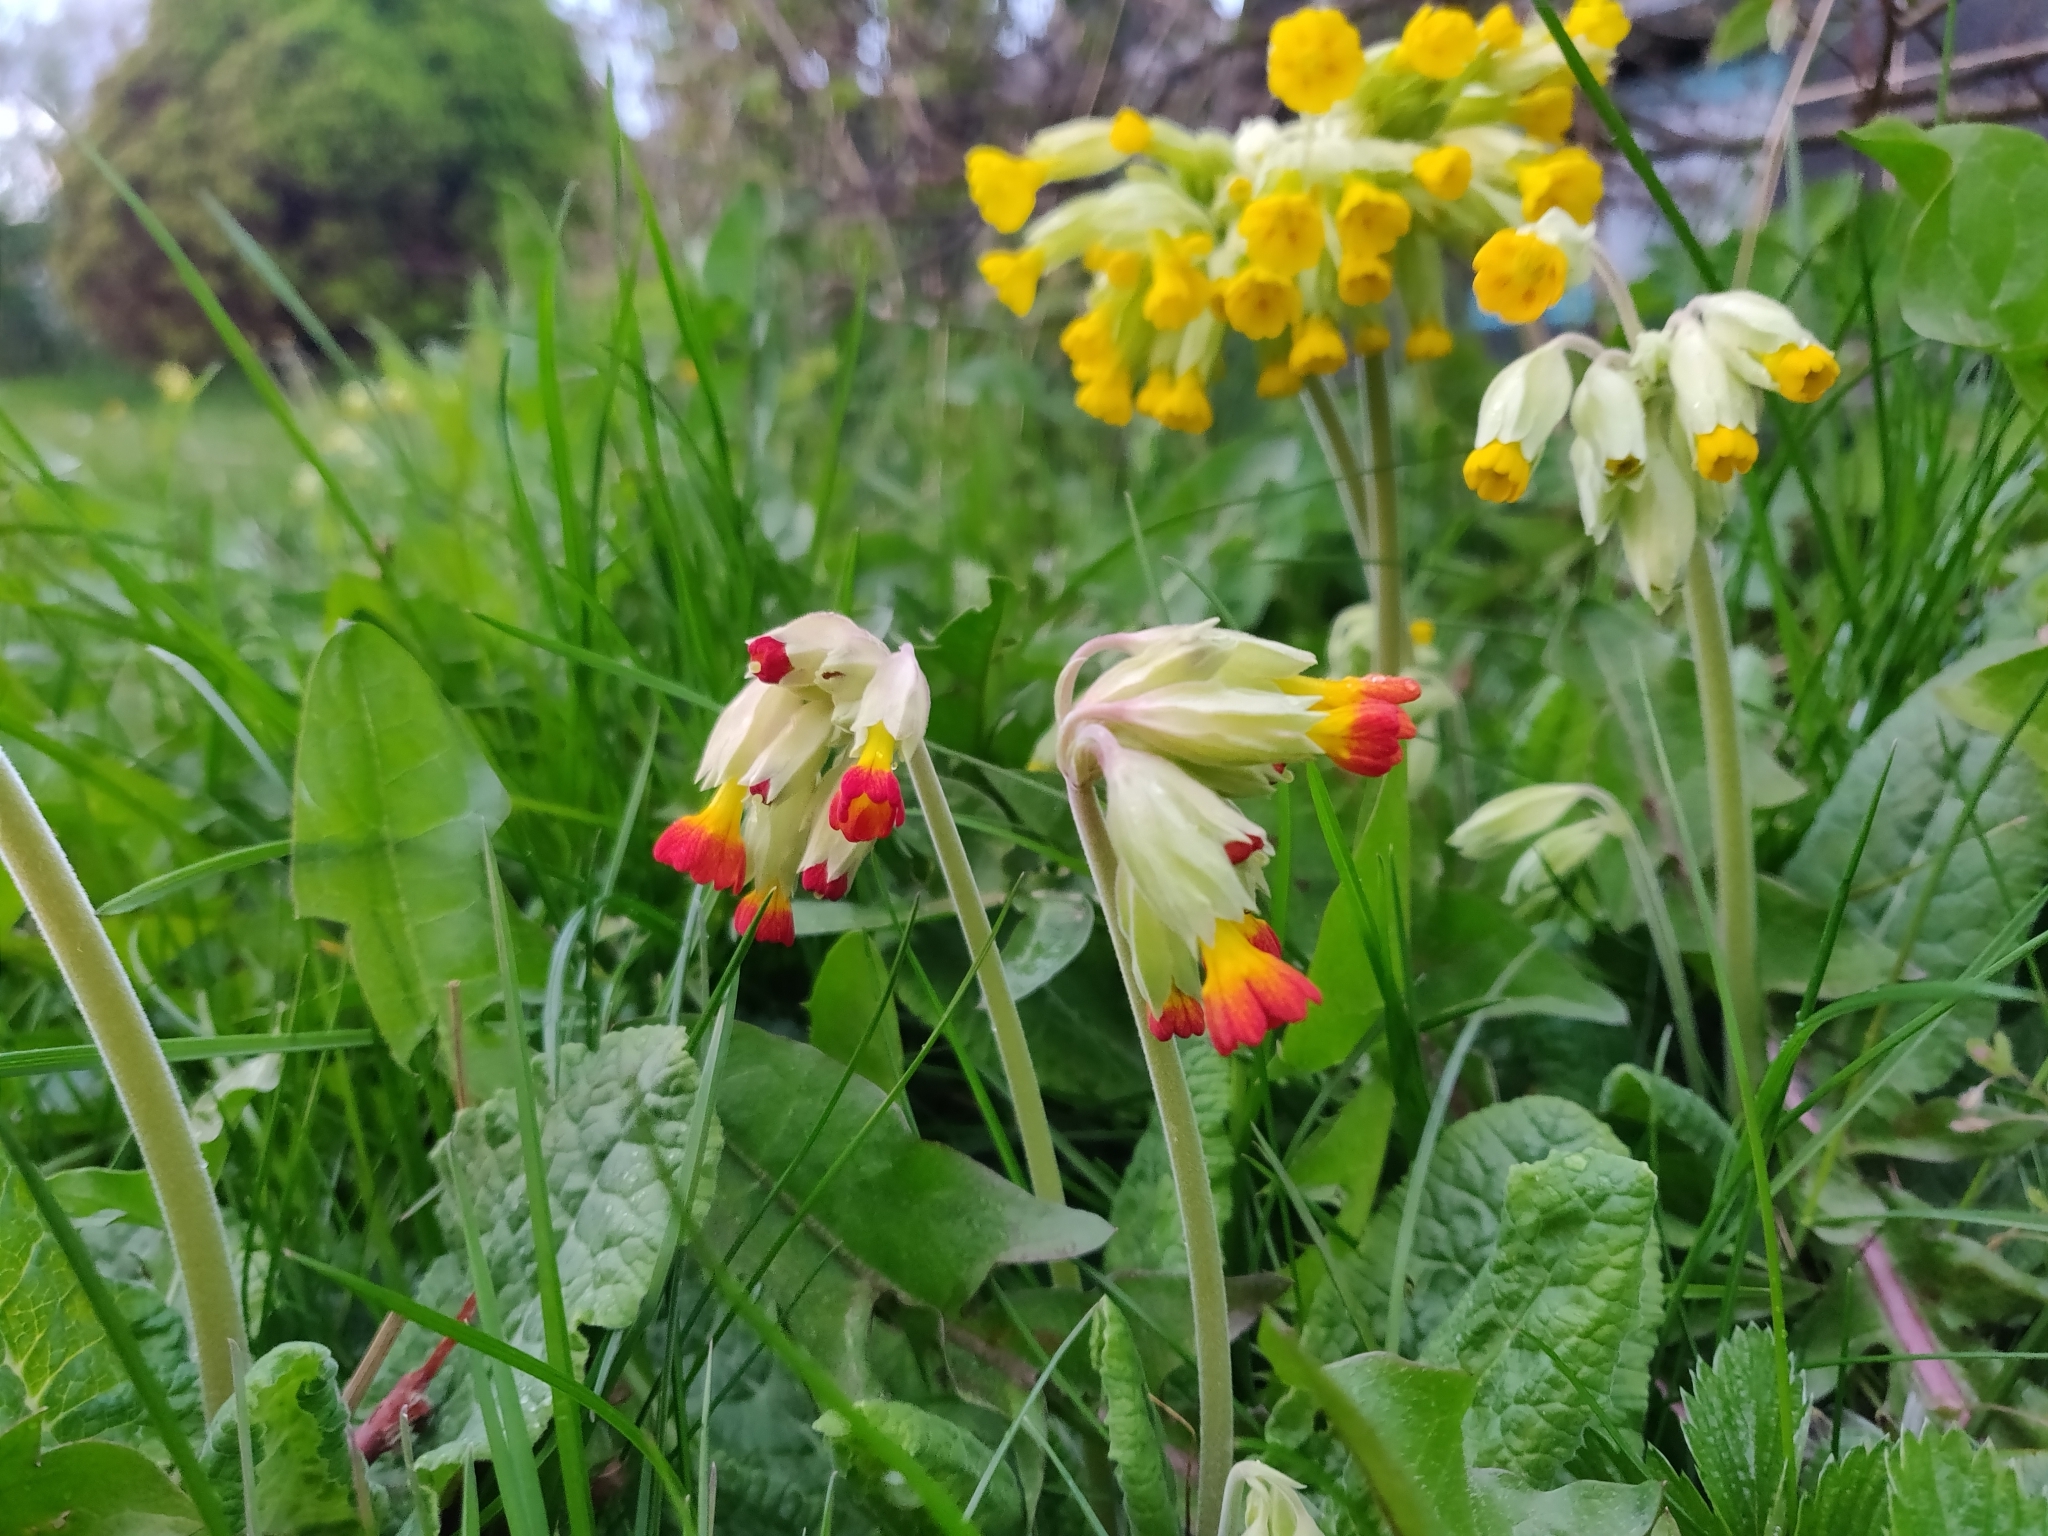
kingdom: Plantae
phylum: Tracheophyta
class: Magnoliopsida
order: Ericales
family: Primulaceae
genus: Primula
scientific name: Primula veris
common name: Cowslip
